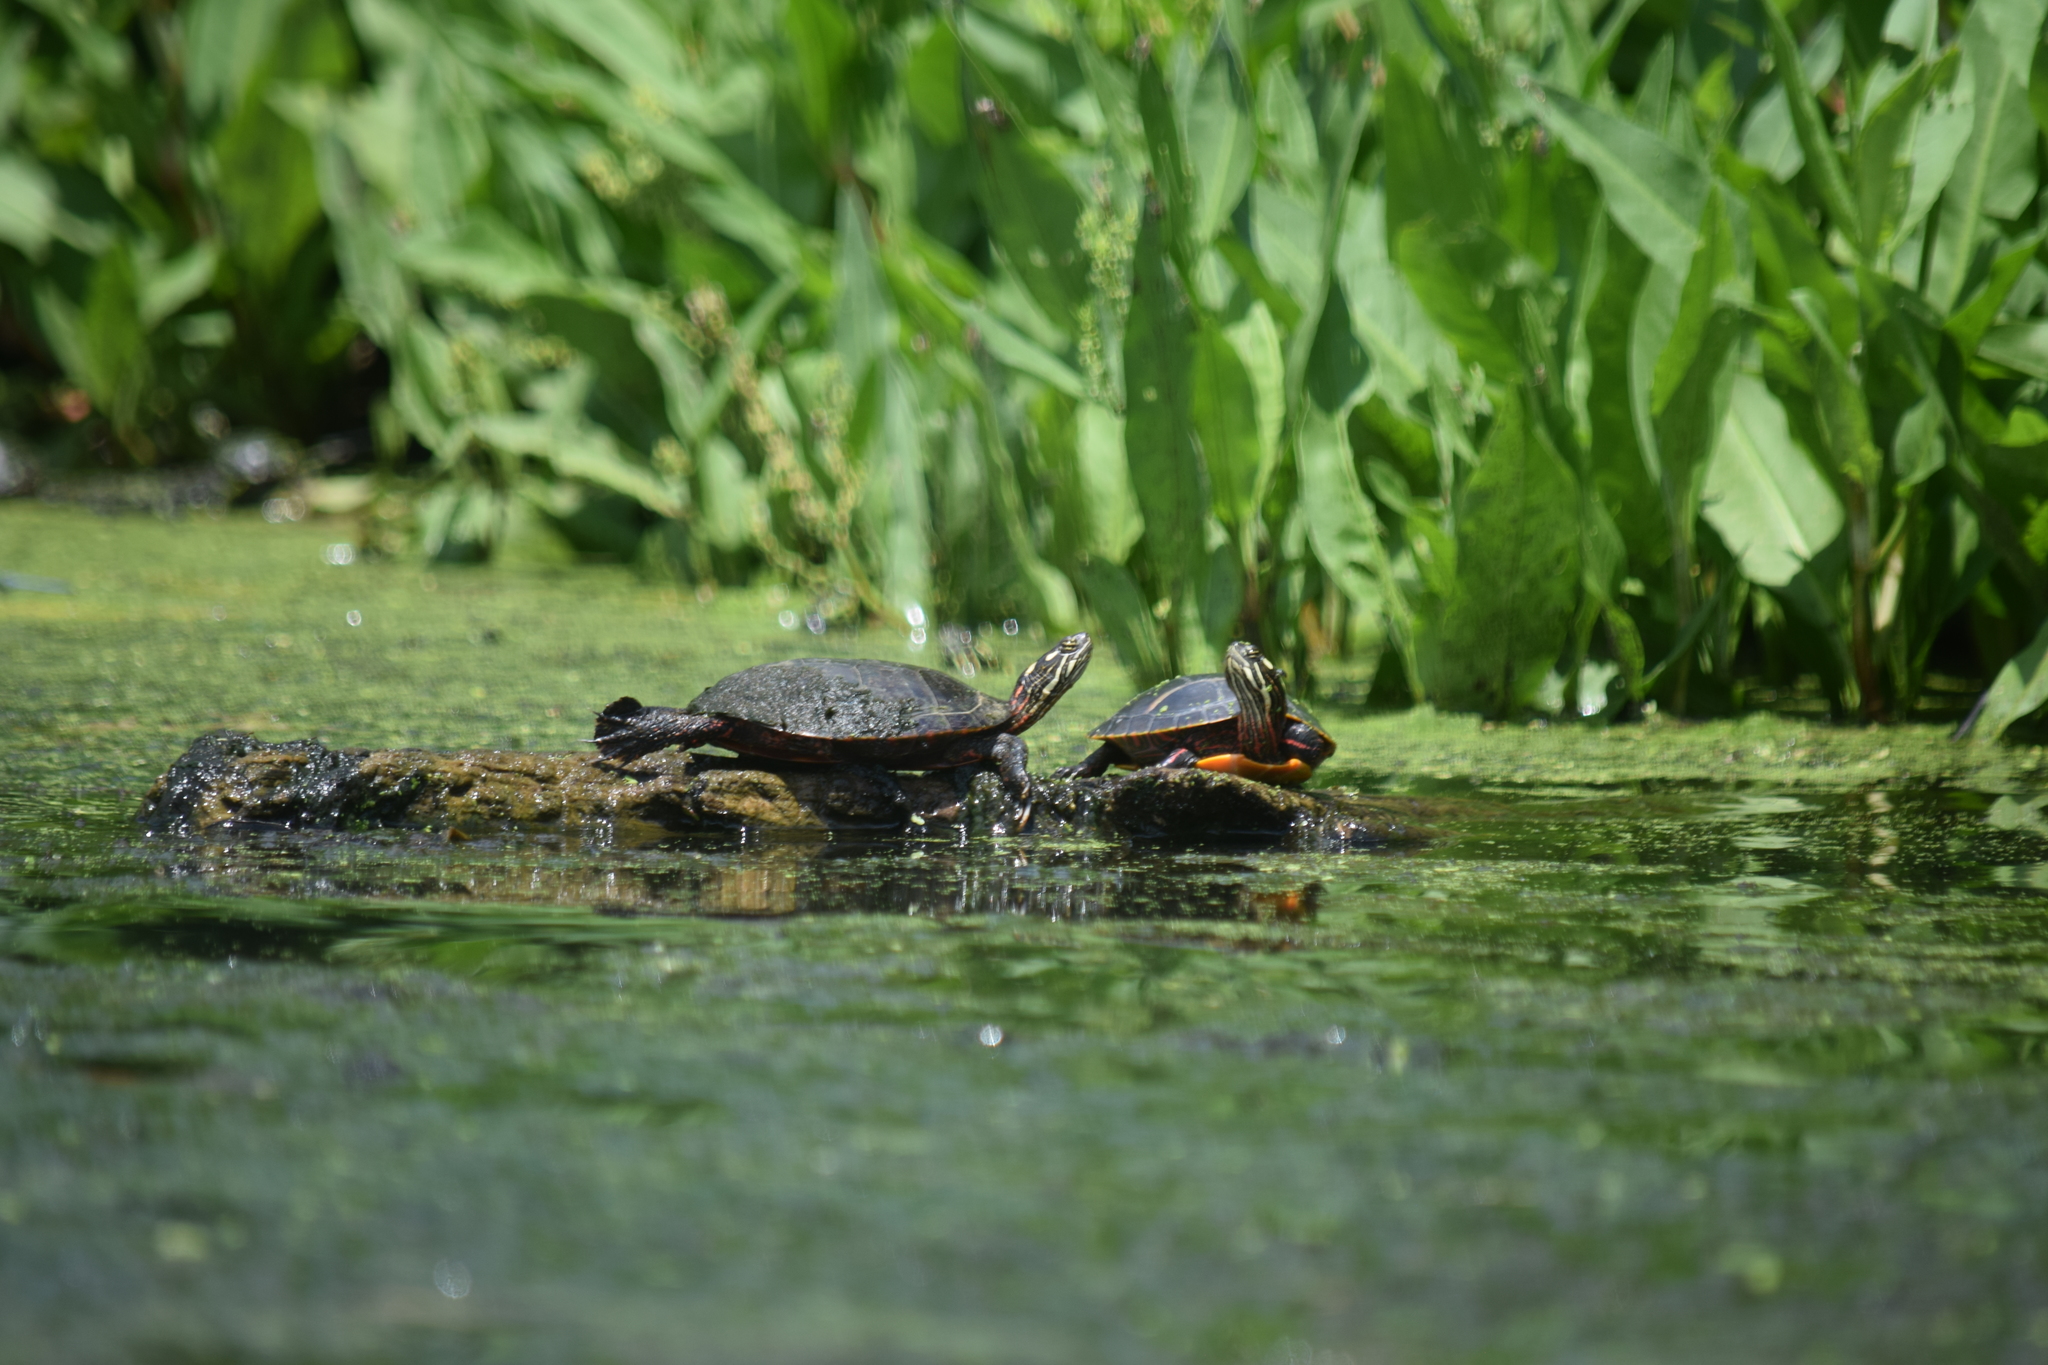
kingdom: Animalia
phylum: Chordata
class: Testudines
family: Emydidae
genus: Chrysemys
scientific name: Chrysemys picta
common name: Painted turtle
